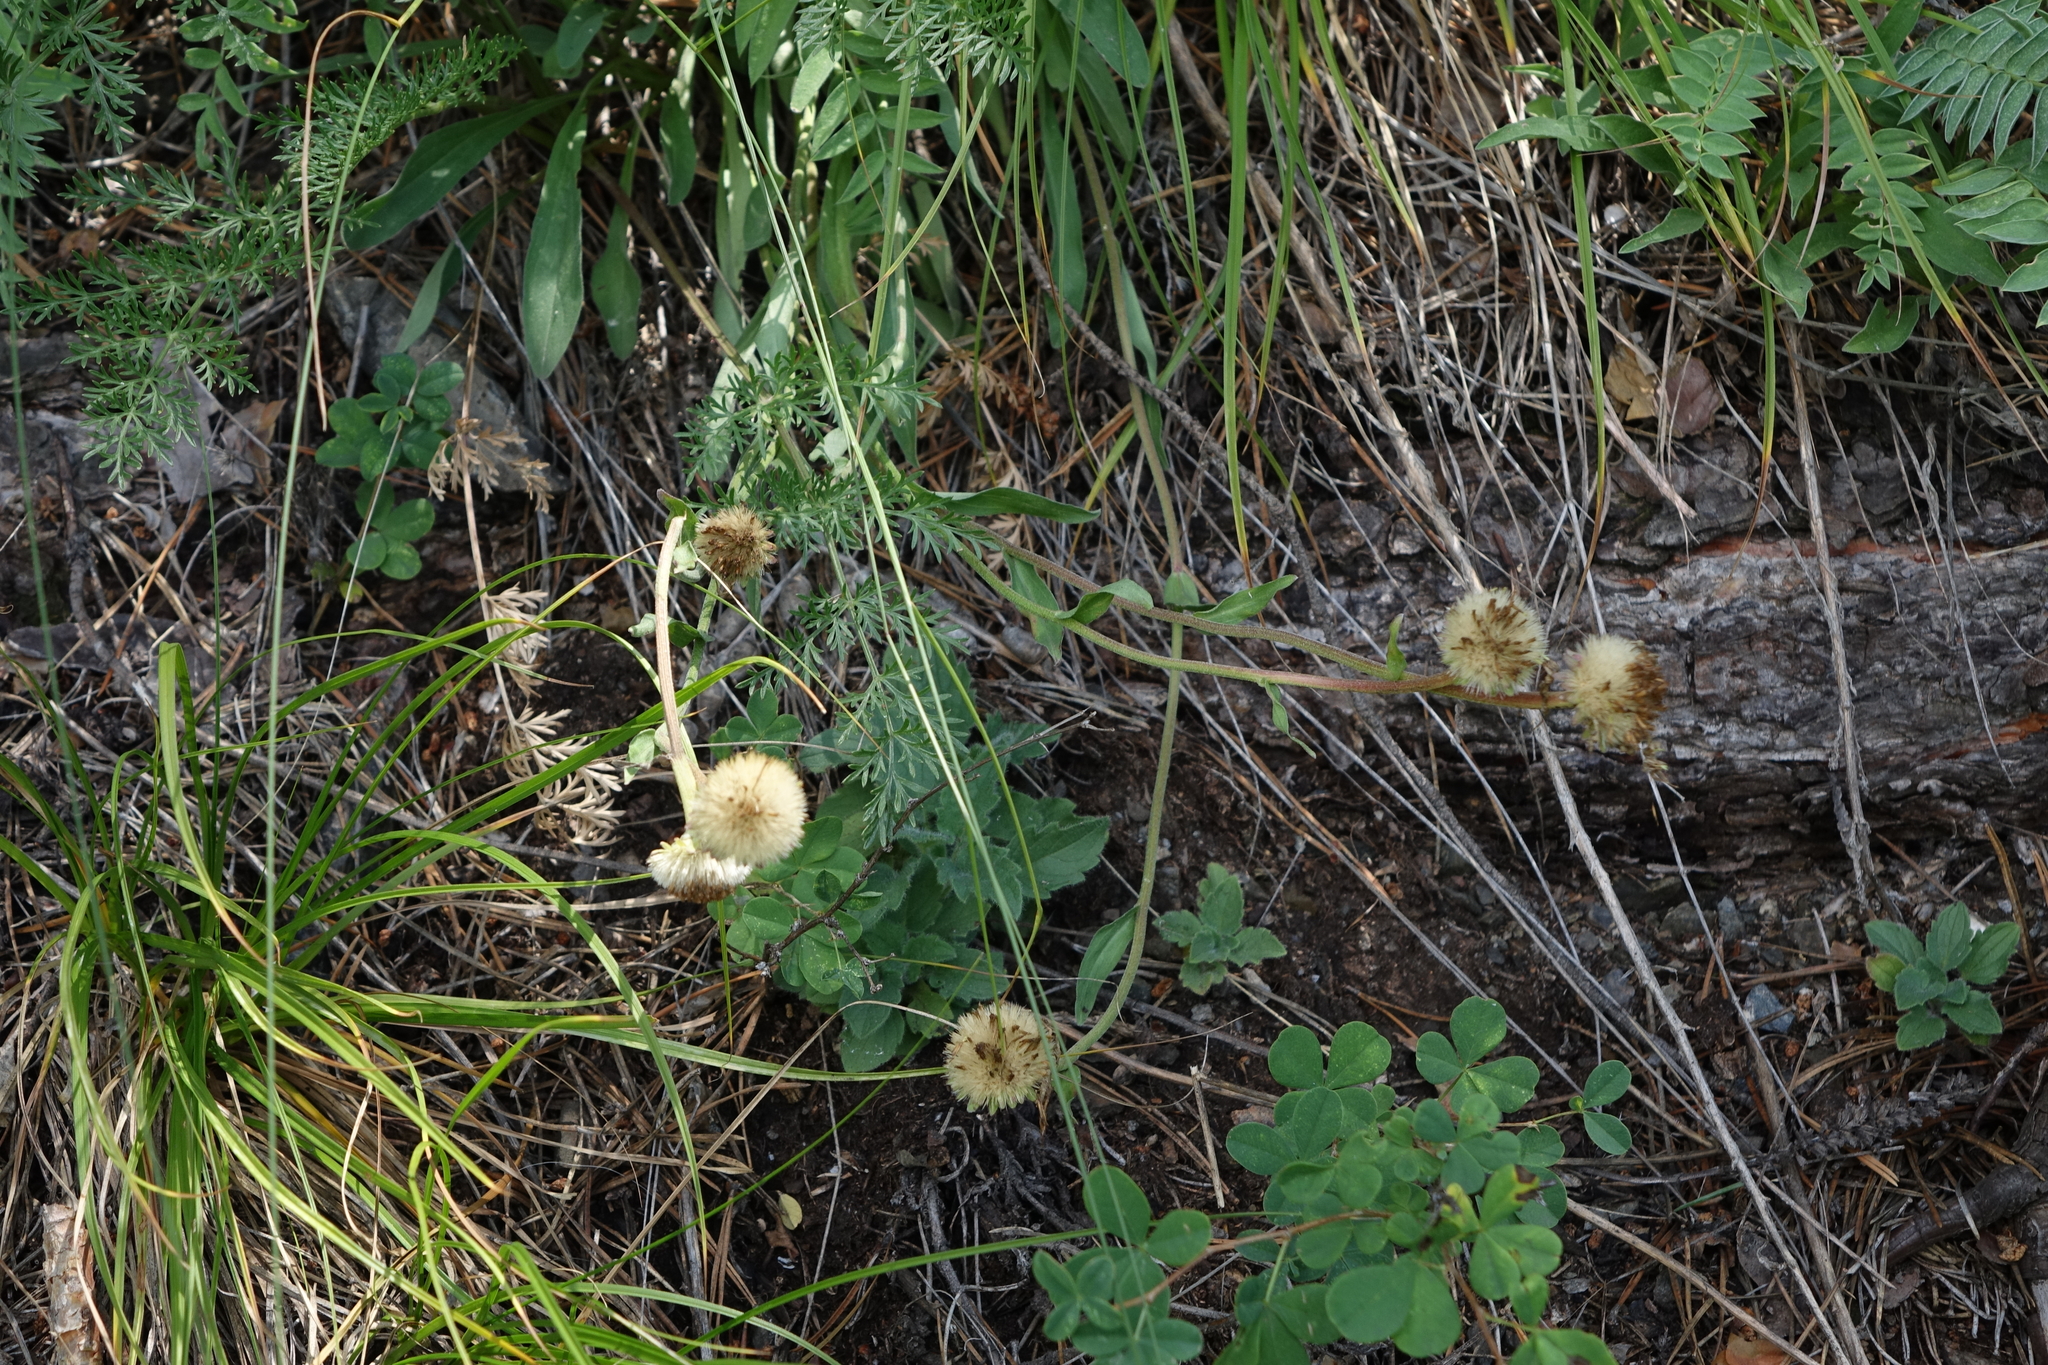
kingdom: Plantae
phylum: Tracheophyta
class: Magnoliopsida
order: Asterales
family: Asteraceae
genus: Aster
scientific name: Aster alpinus
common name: Alpine aster
